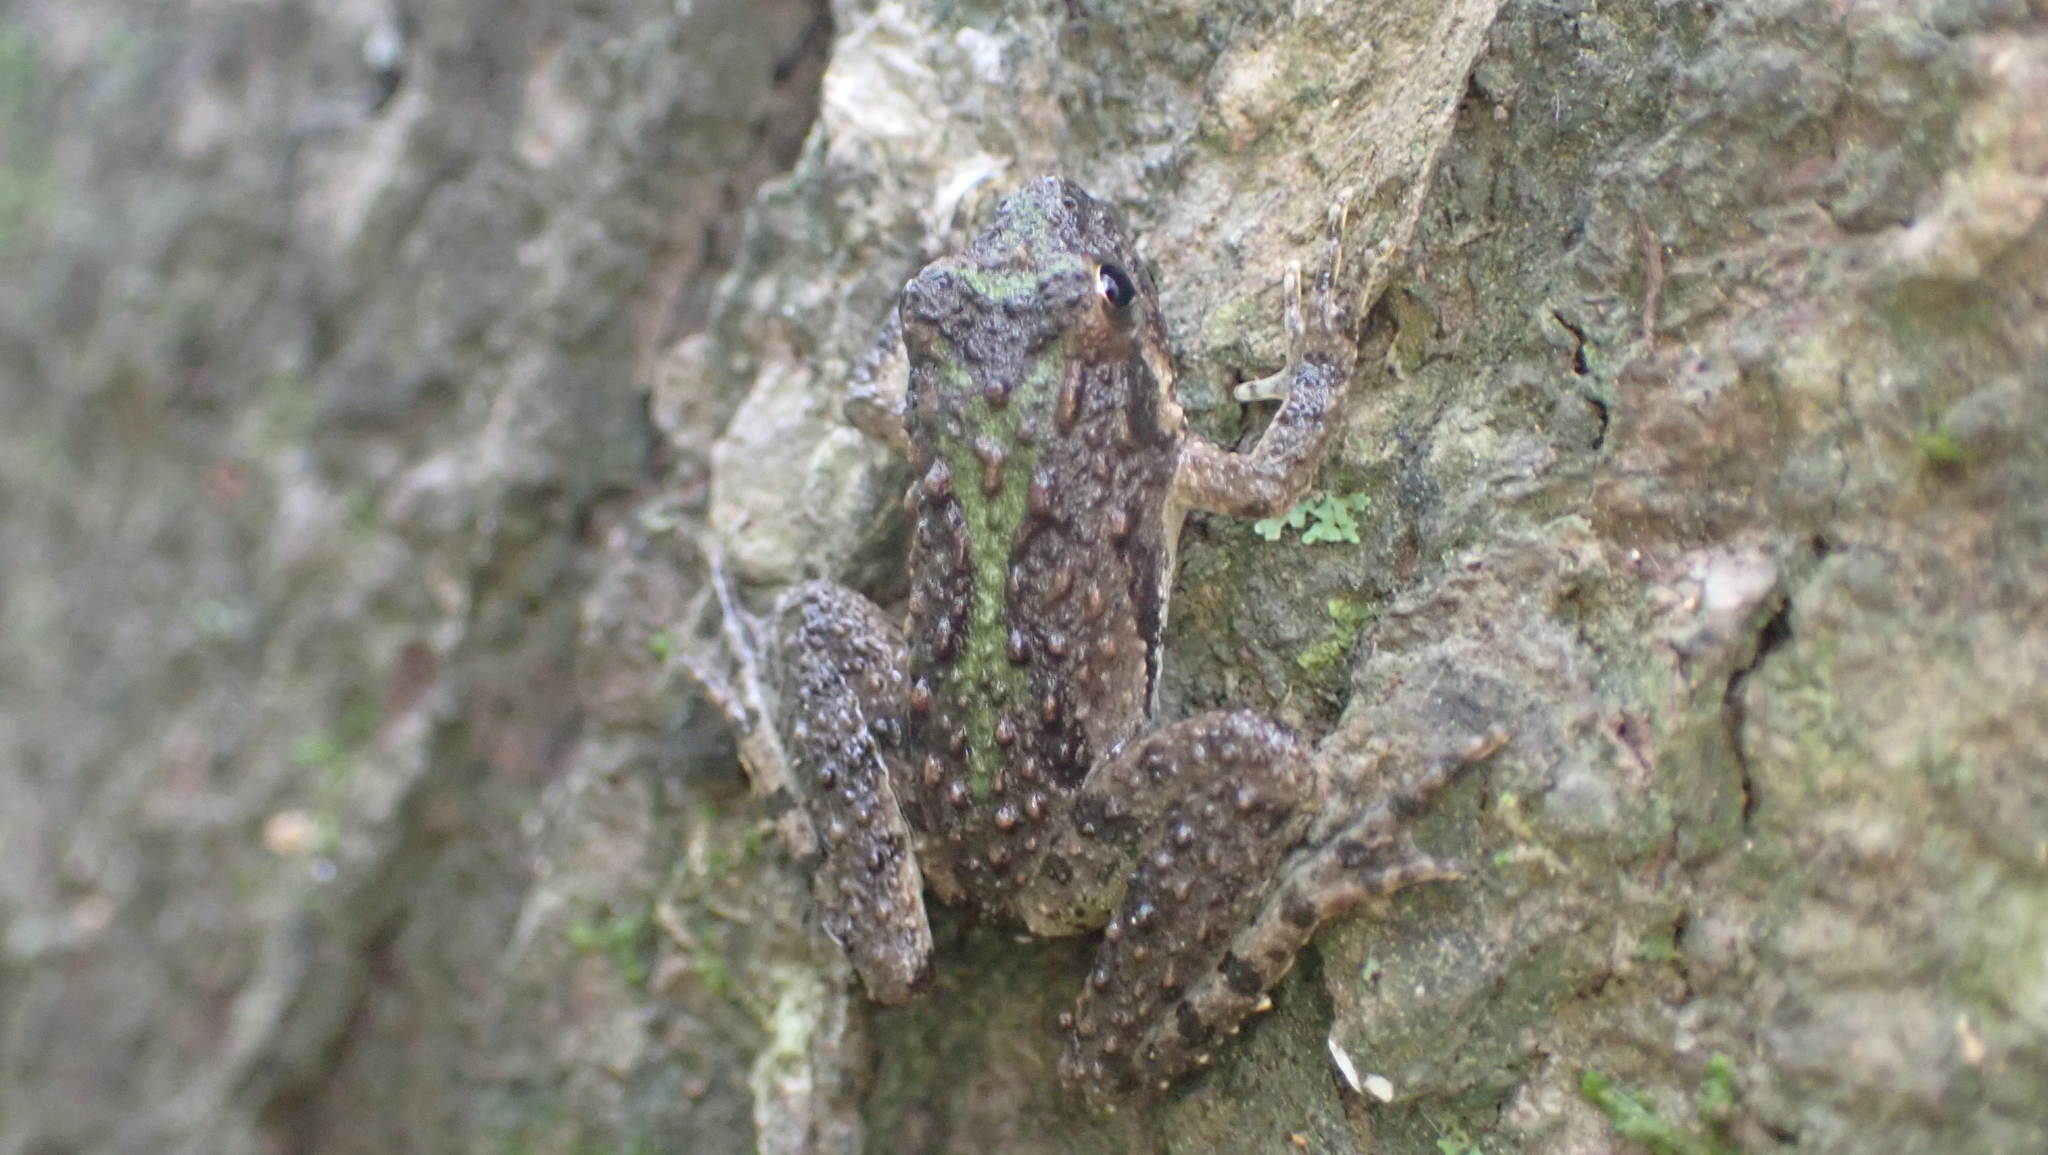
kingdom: Animalia
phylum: Chordata
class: Amphibia
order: Anura
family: Hylidae
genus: Acris
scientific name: Acris blanchardi
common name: Blanchard's cricket frog
